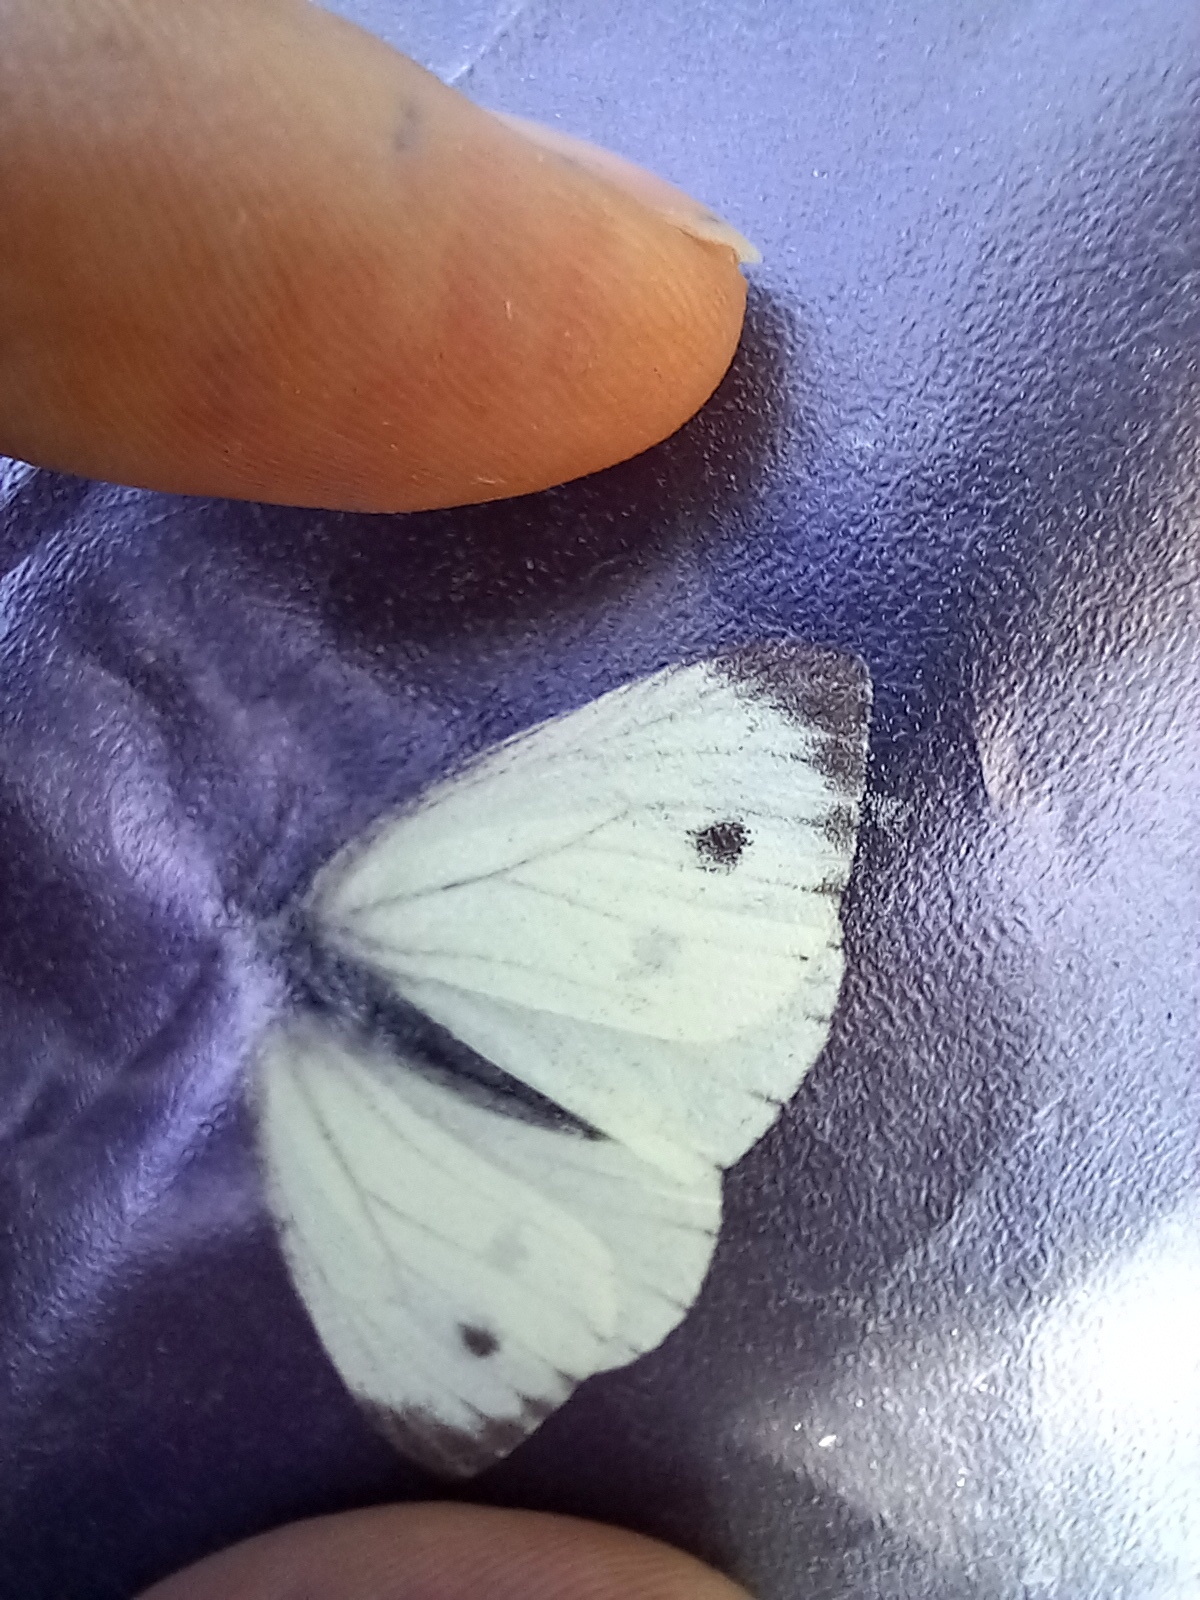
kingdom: Animalia
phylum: Arthropoda
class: Insecta
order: Lepidoptera
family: Pieridae
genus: Pieris
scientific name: Pieris napi
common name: Green-veined white
